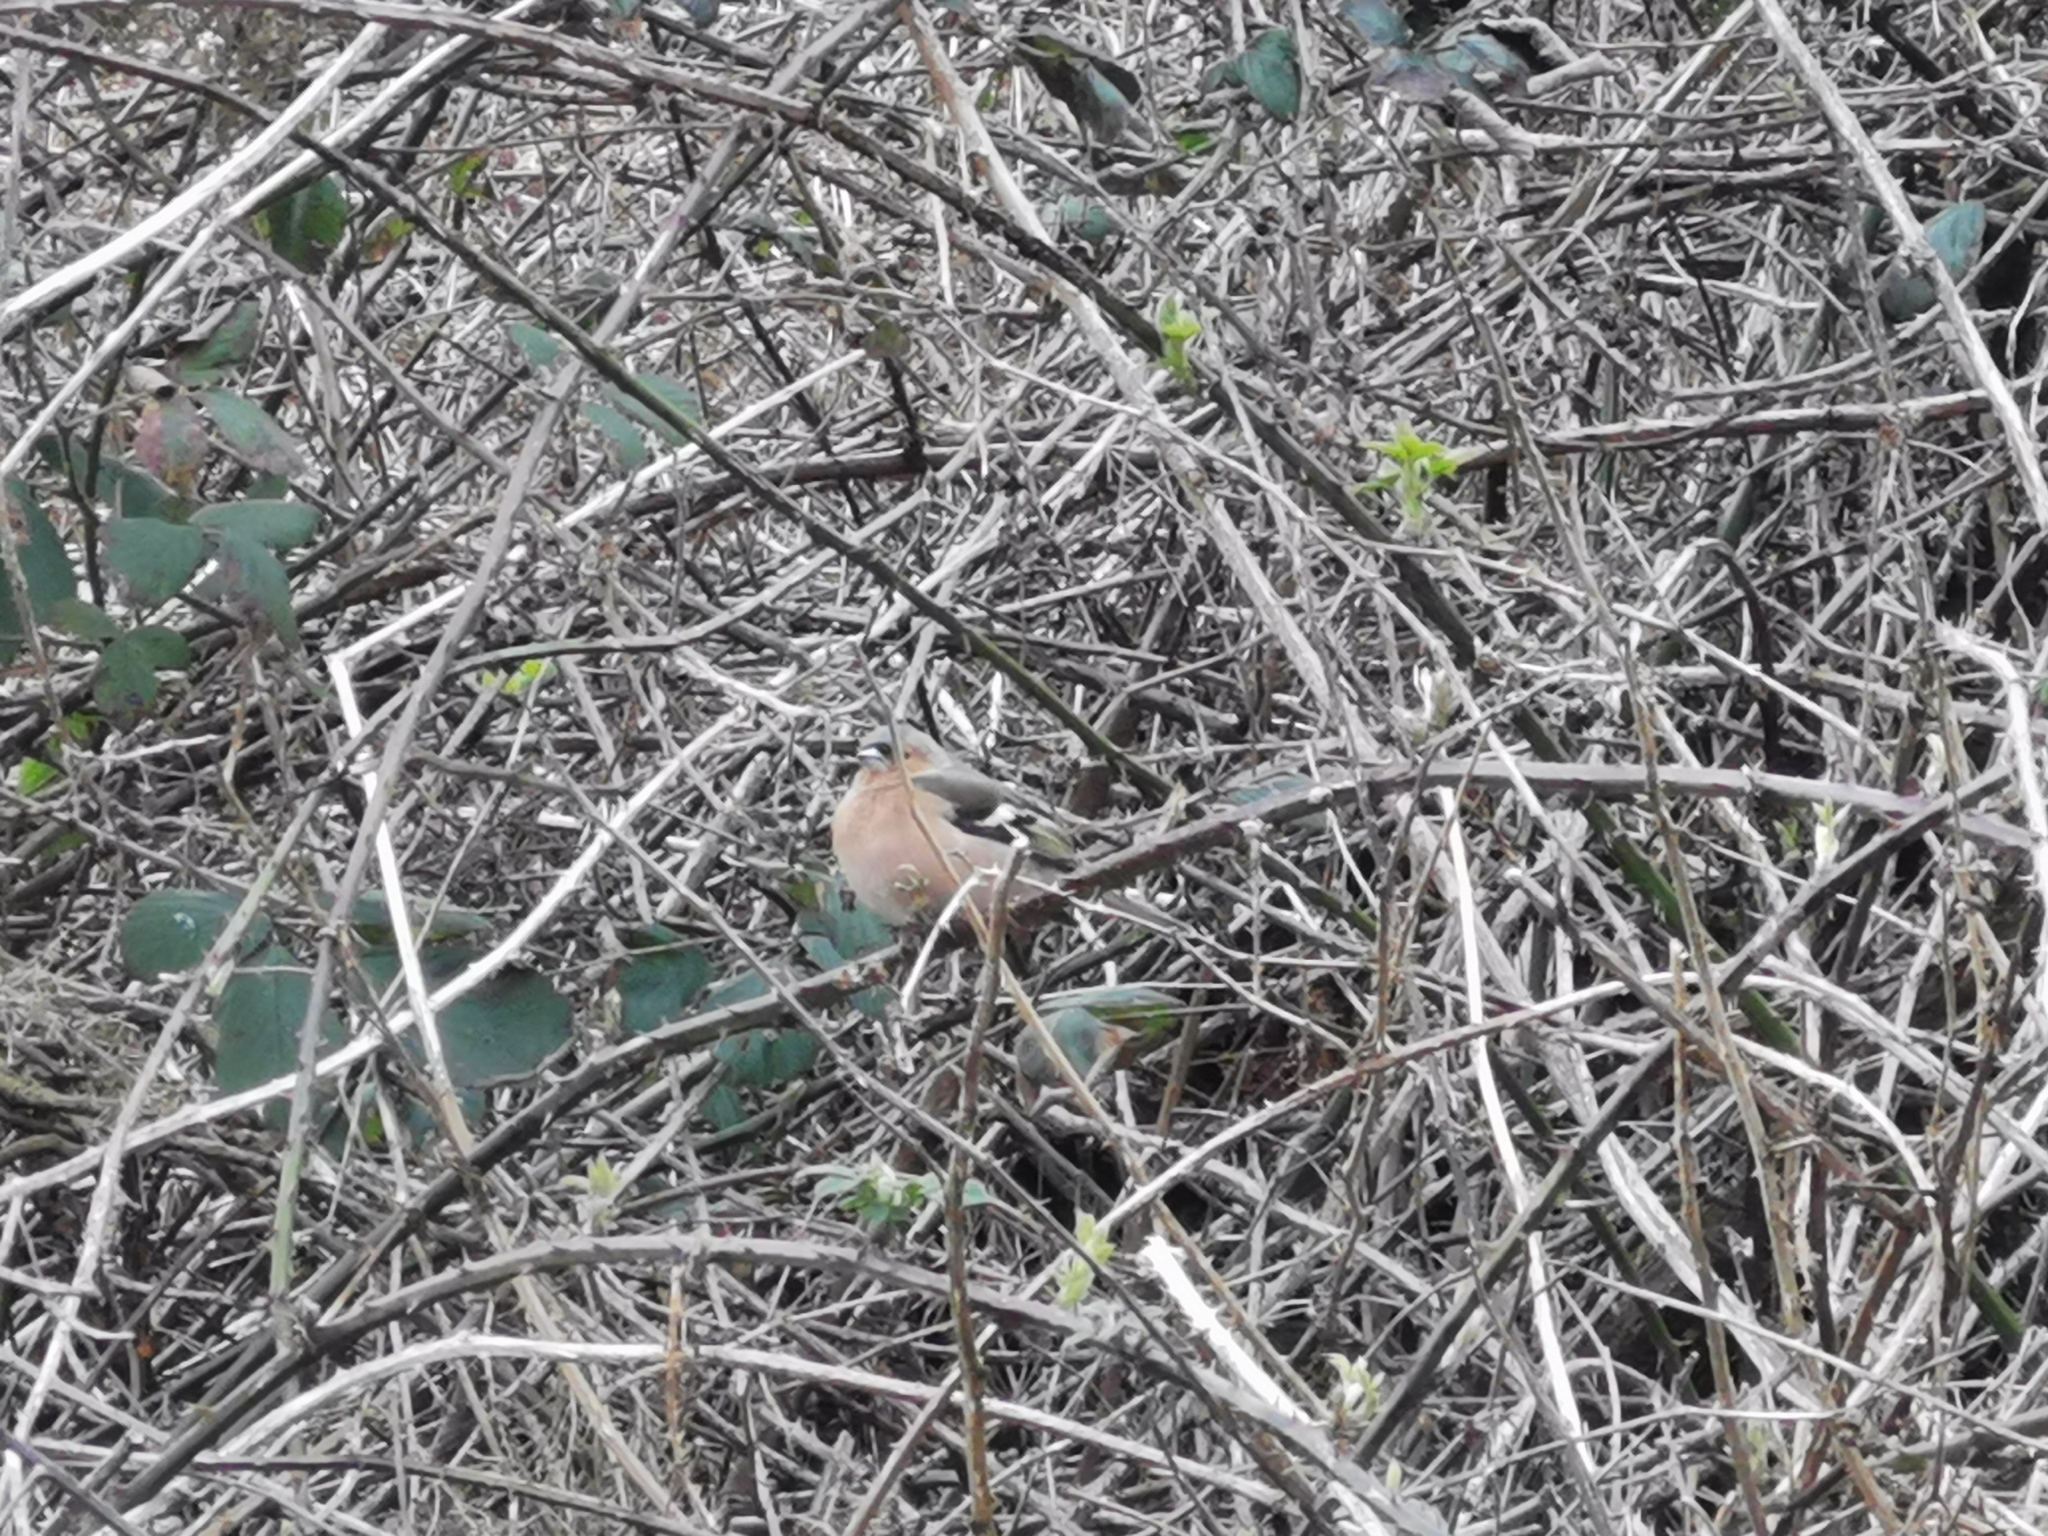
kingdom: Animalia
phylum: Chordata
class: Aves
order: Passeriformes
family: Fringillidae
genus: Fringilla
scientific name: Fringilla coelebs
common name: Common chaffinch
